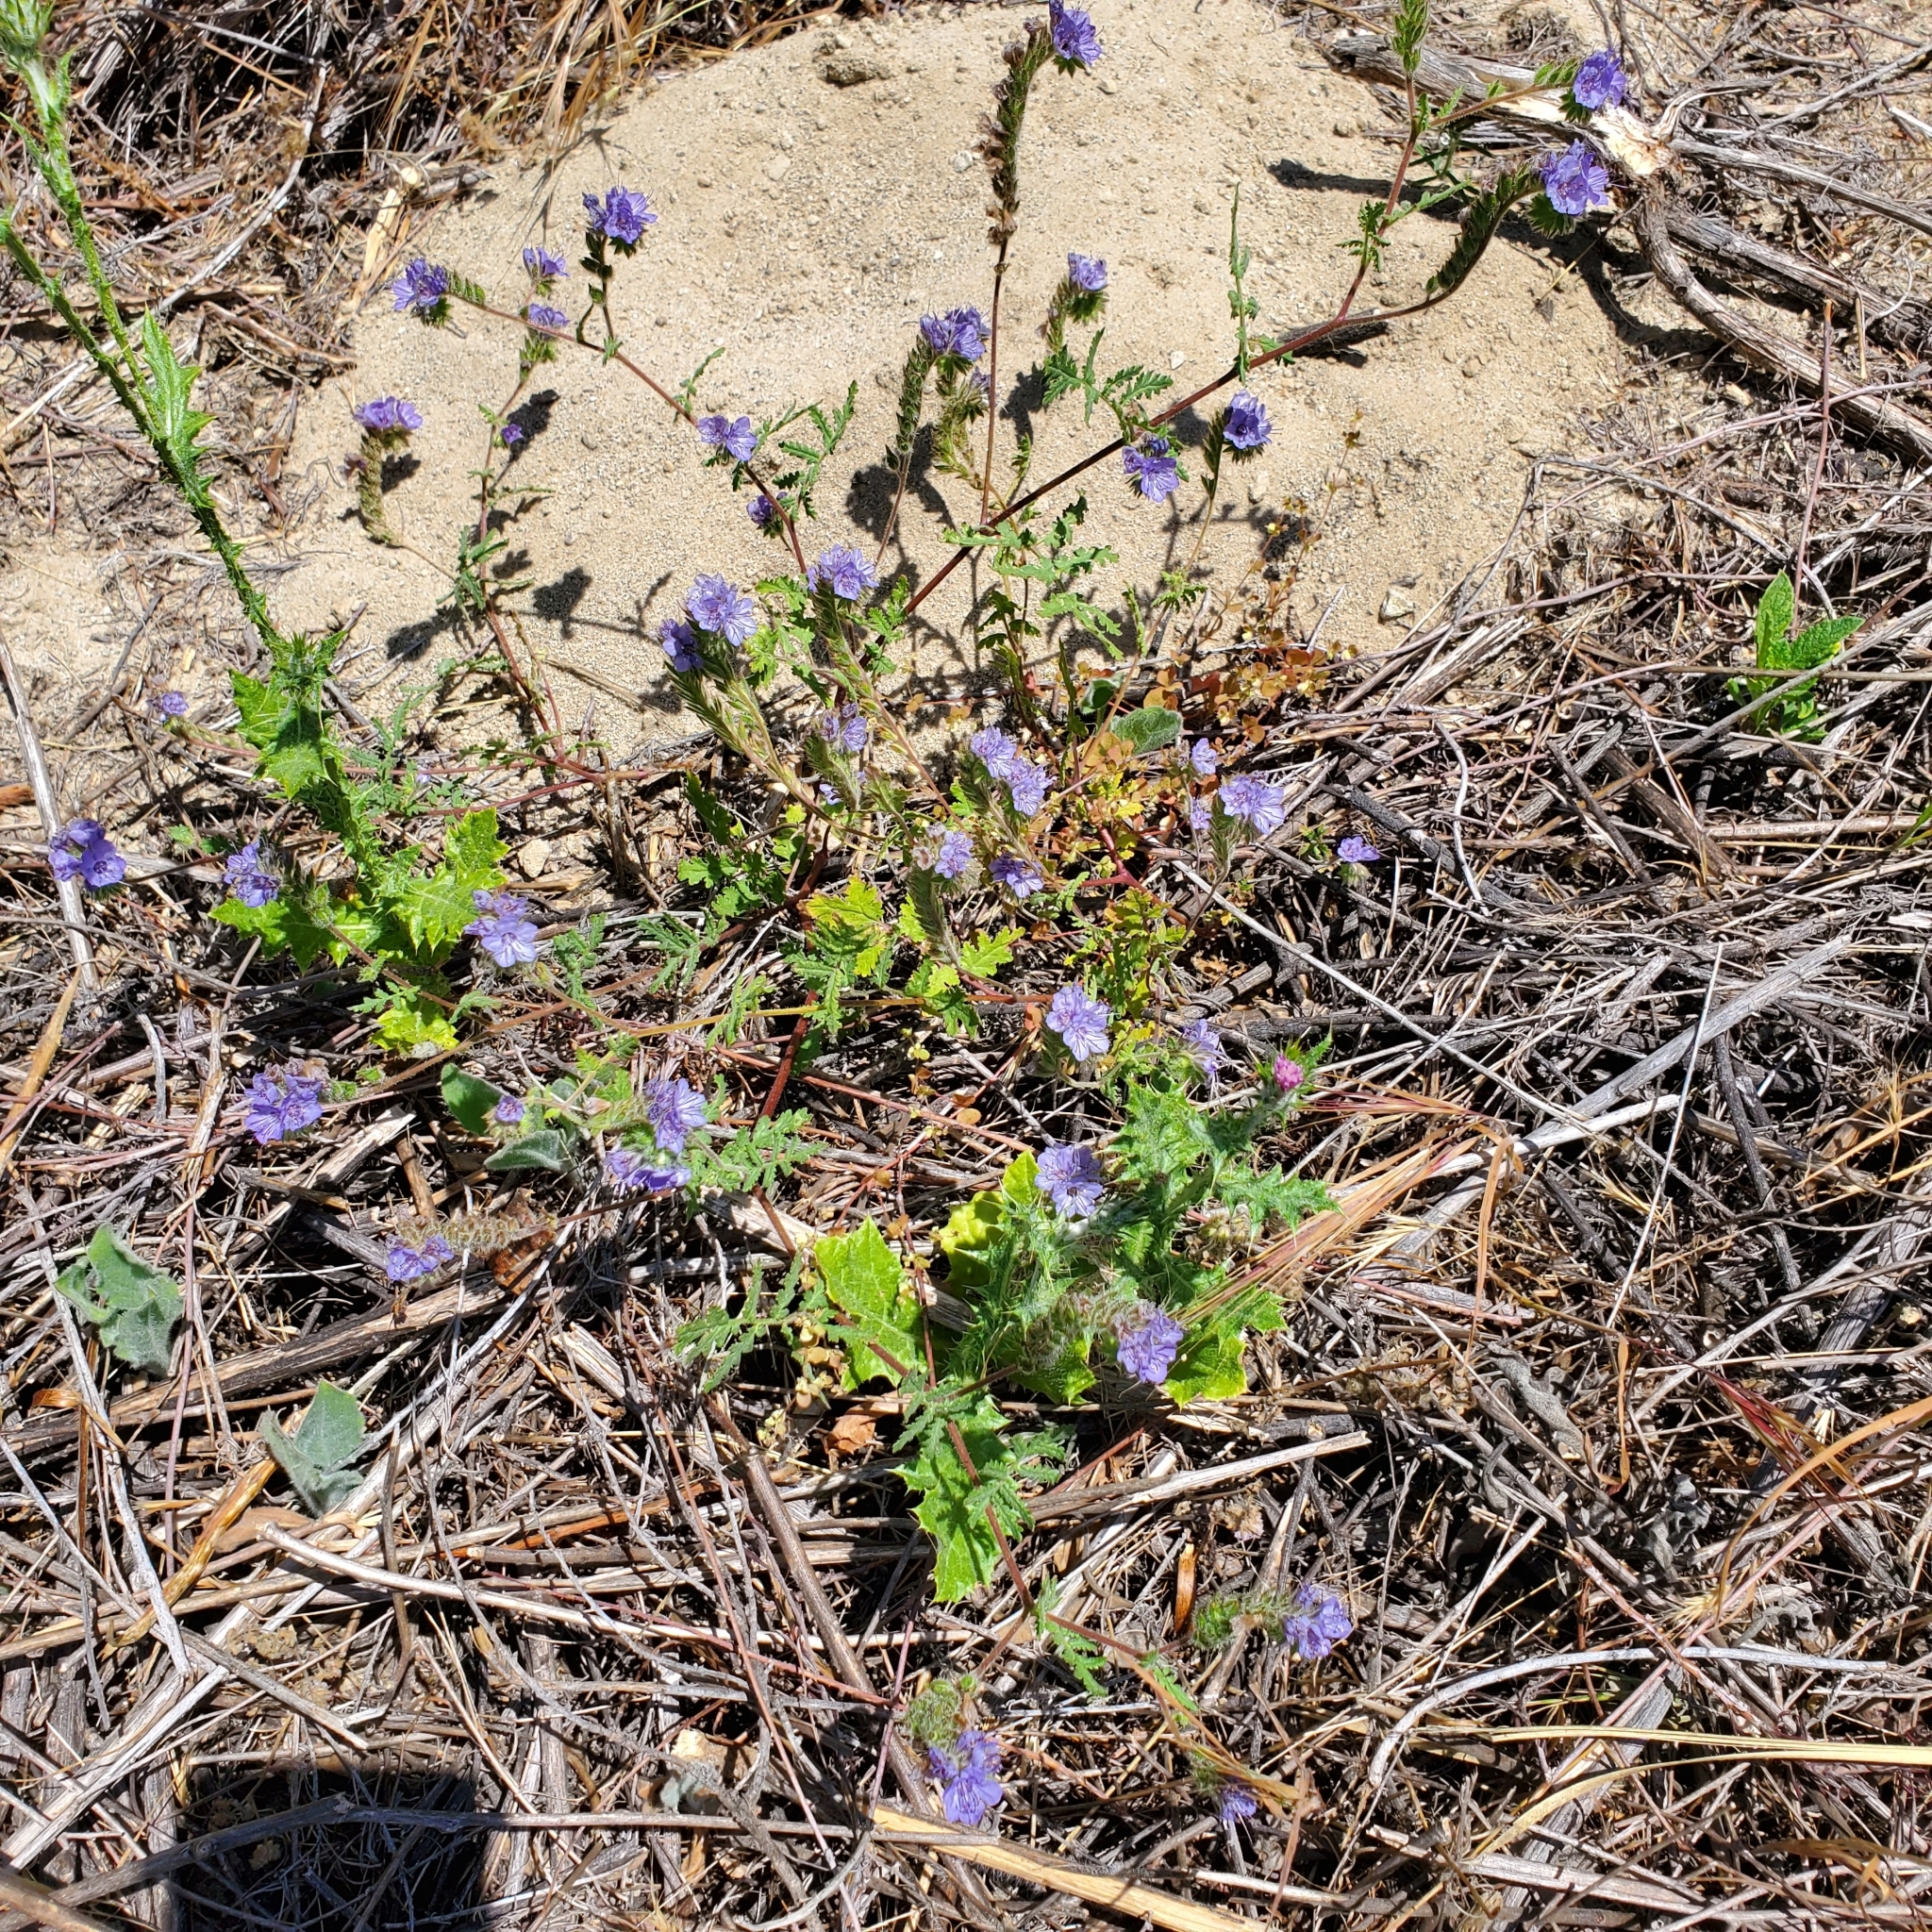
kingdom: Plantae
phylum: Tracheophyta
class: Magnoliopsida
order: Boraginales
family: Hydrophyllaceae
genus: Phacelia
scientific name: Phacelia distans
